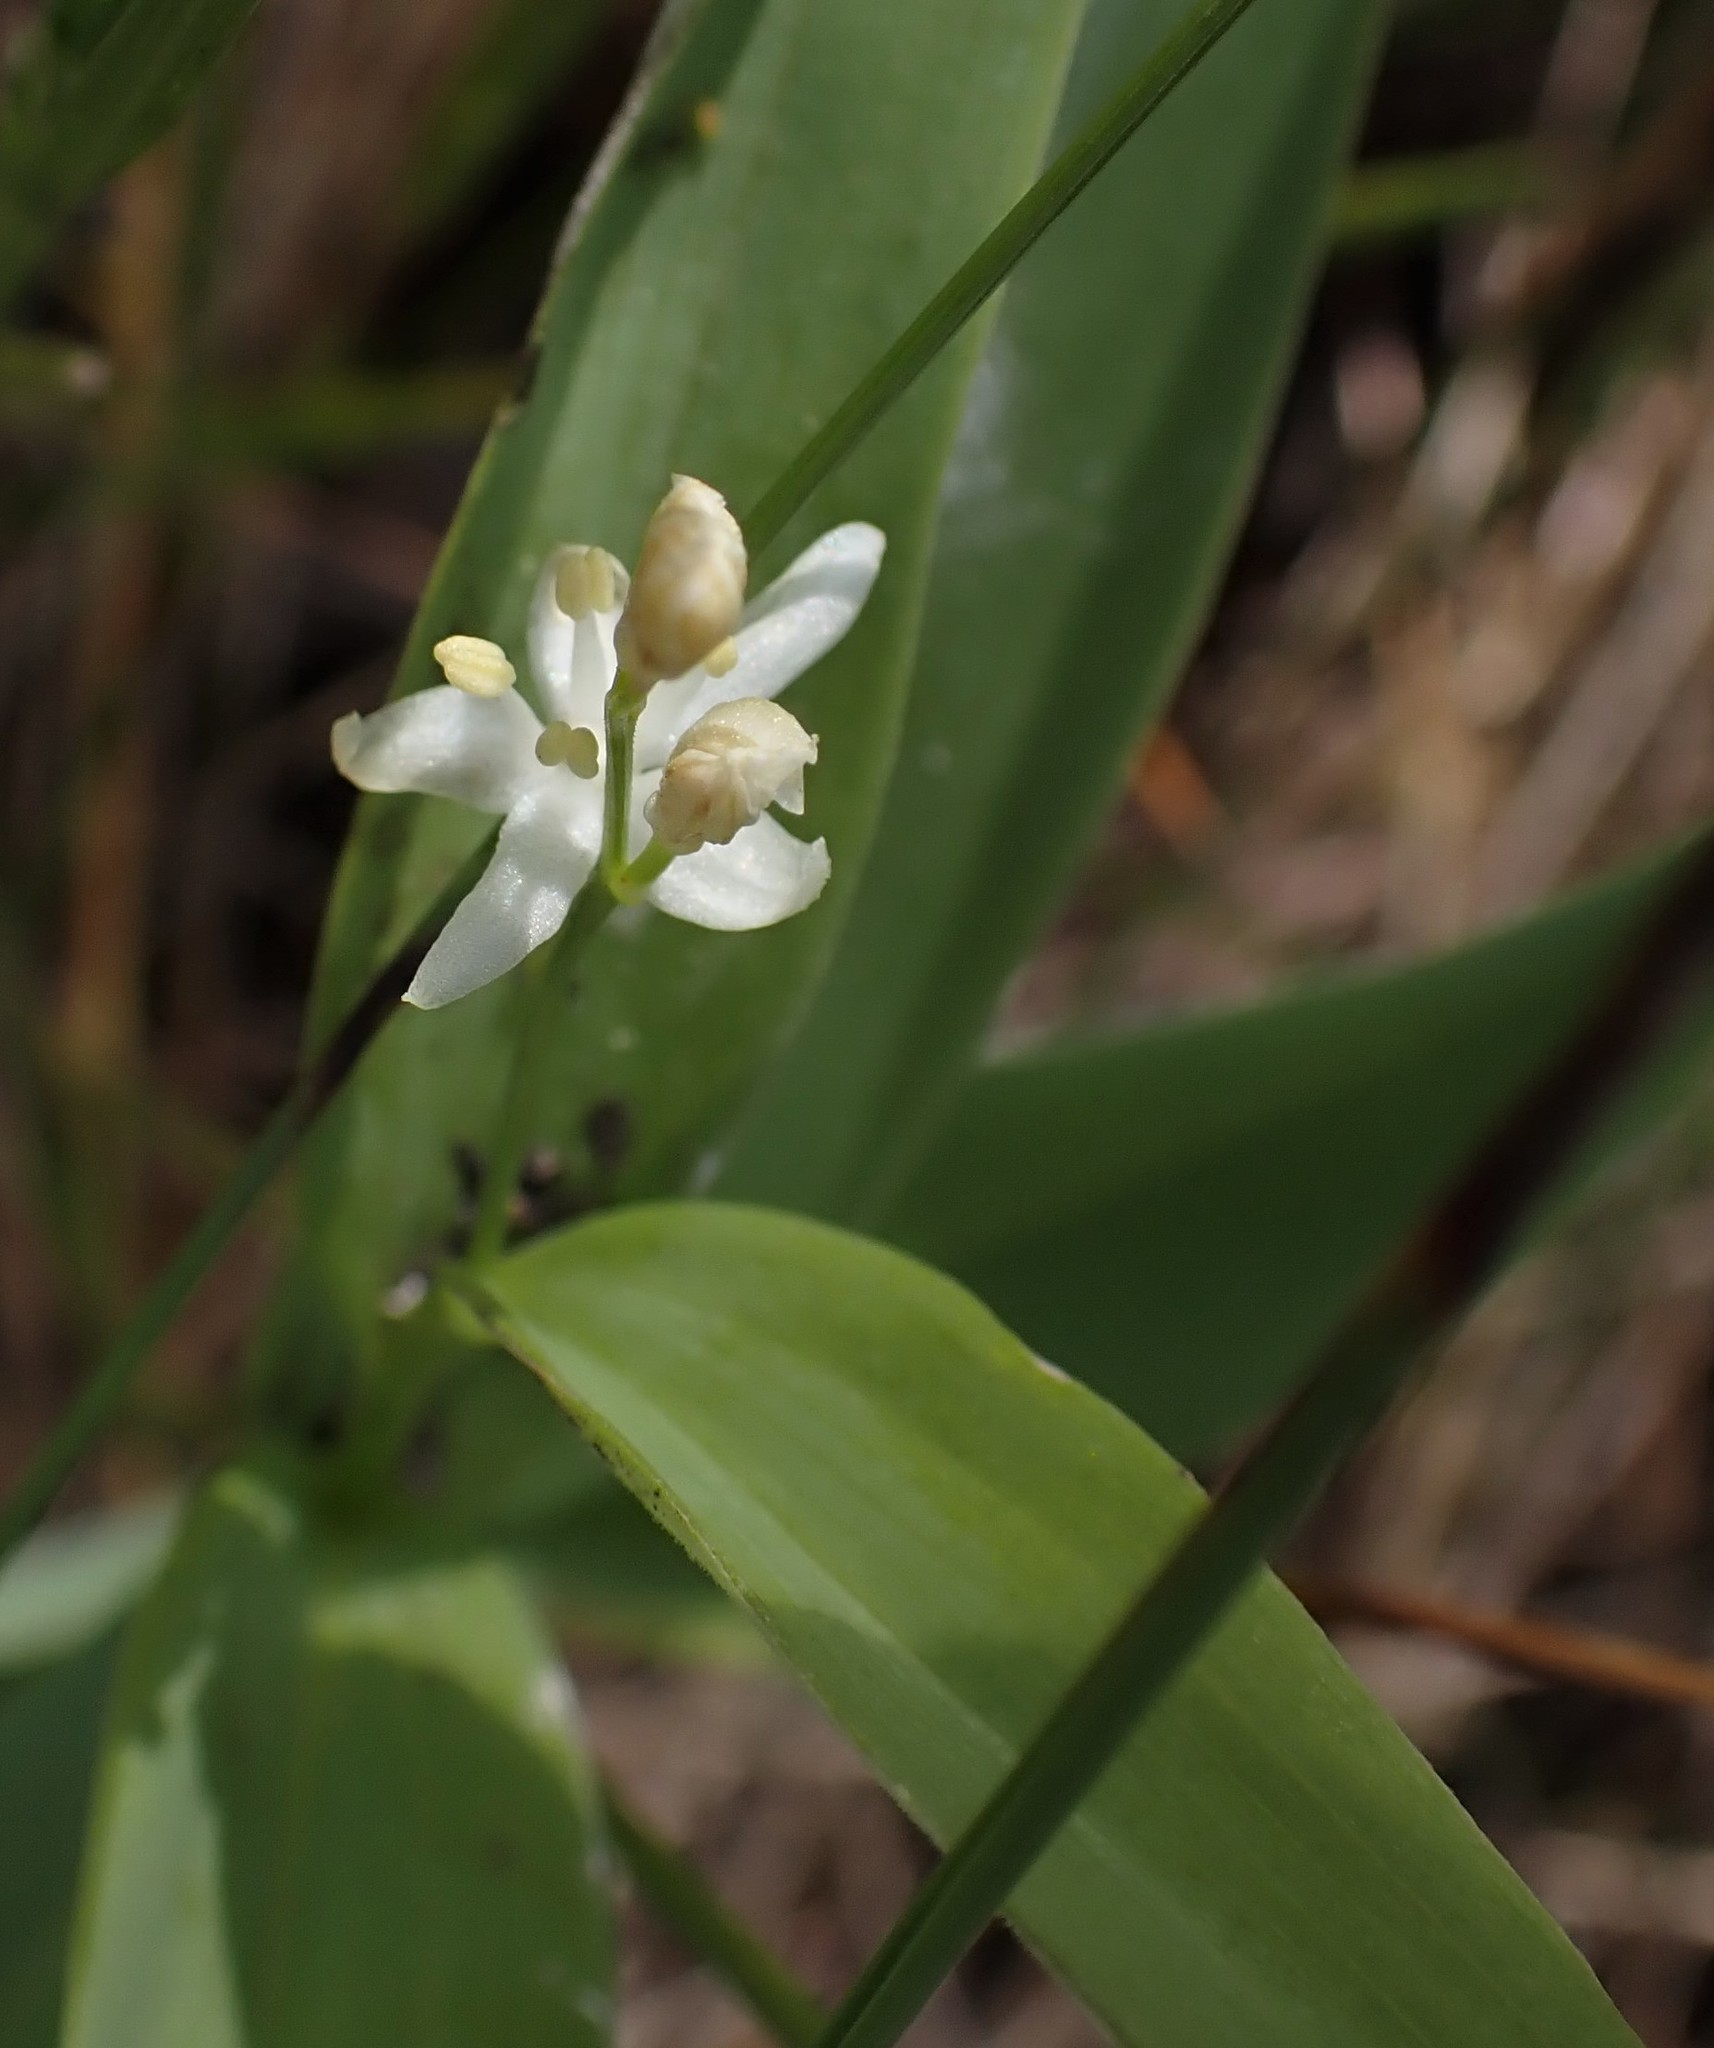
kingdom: Plantae
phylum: Tracheophyta
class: Liliopsida
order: Asparagales
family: Asparagaceae
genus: Maianthemum
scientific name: Maianthemum stellatum
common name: Little false solomon's seal
